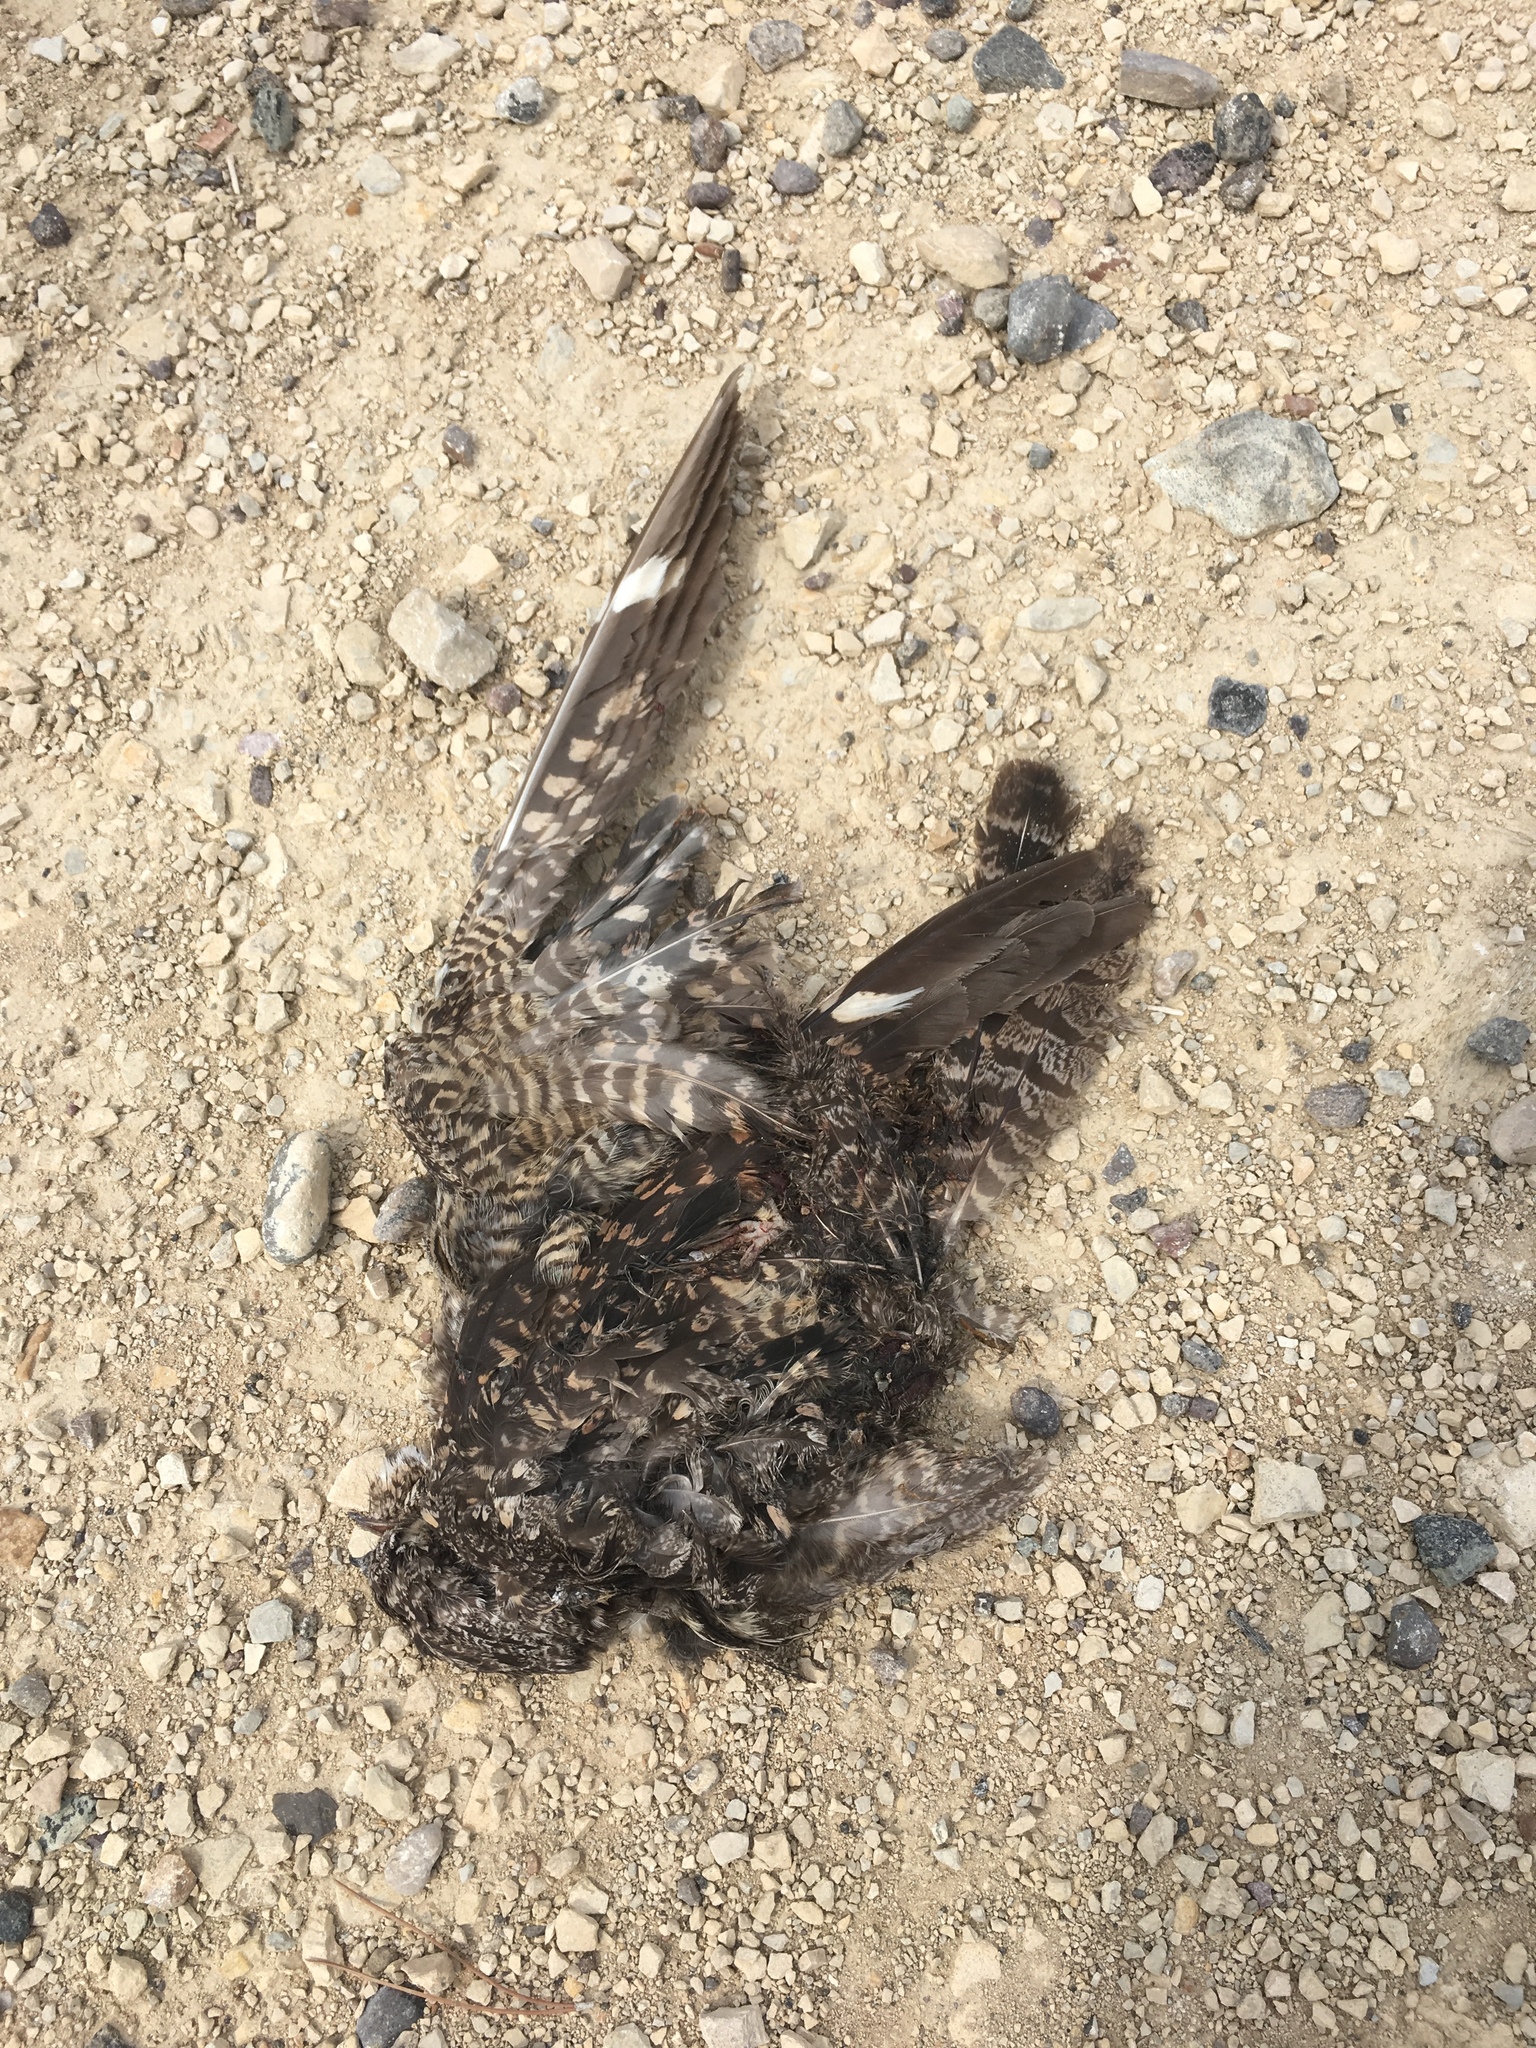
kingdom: Animalia
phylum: Chordata
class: Aves
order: Caprimulgiformes
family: Caprimulgidae
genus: Chordeiles
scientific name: Chordeiles acutipennis
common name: Lesser nighthawk
